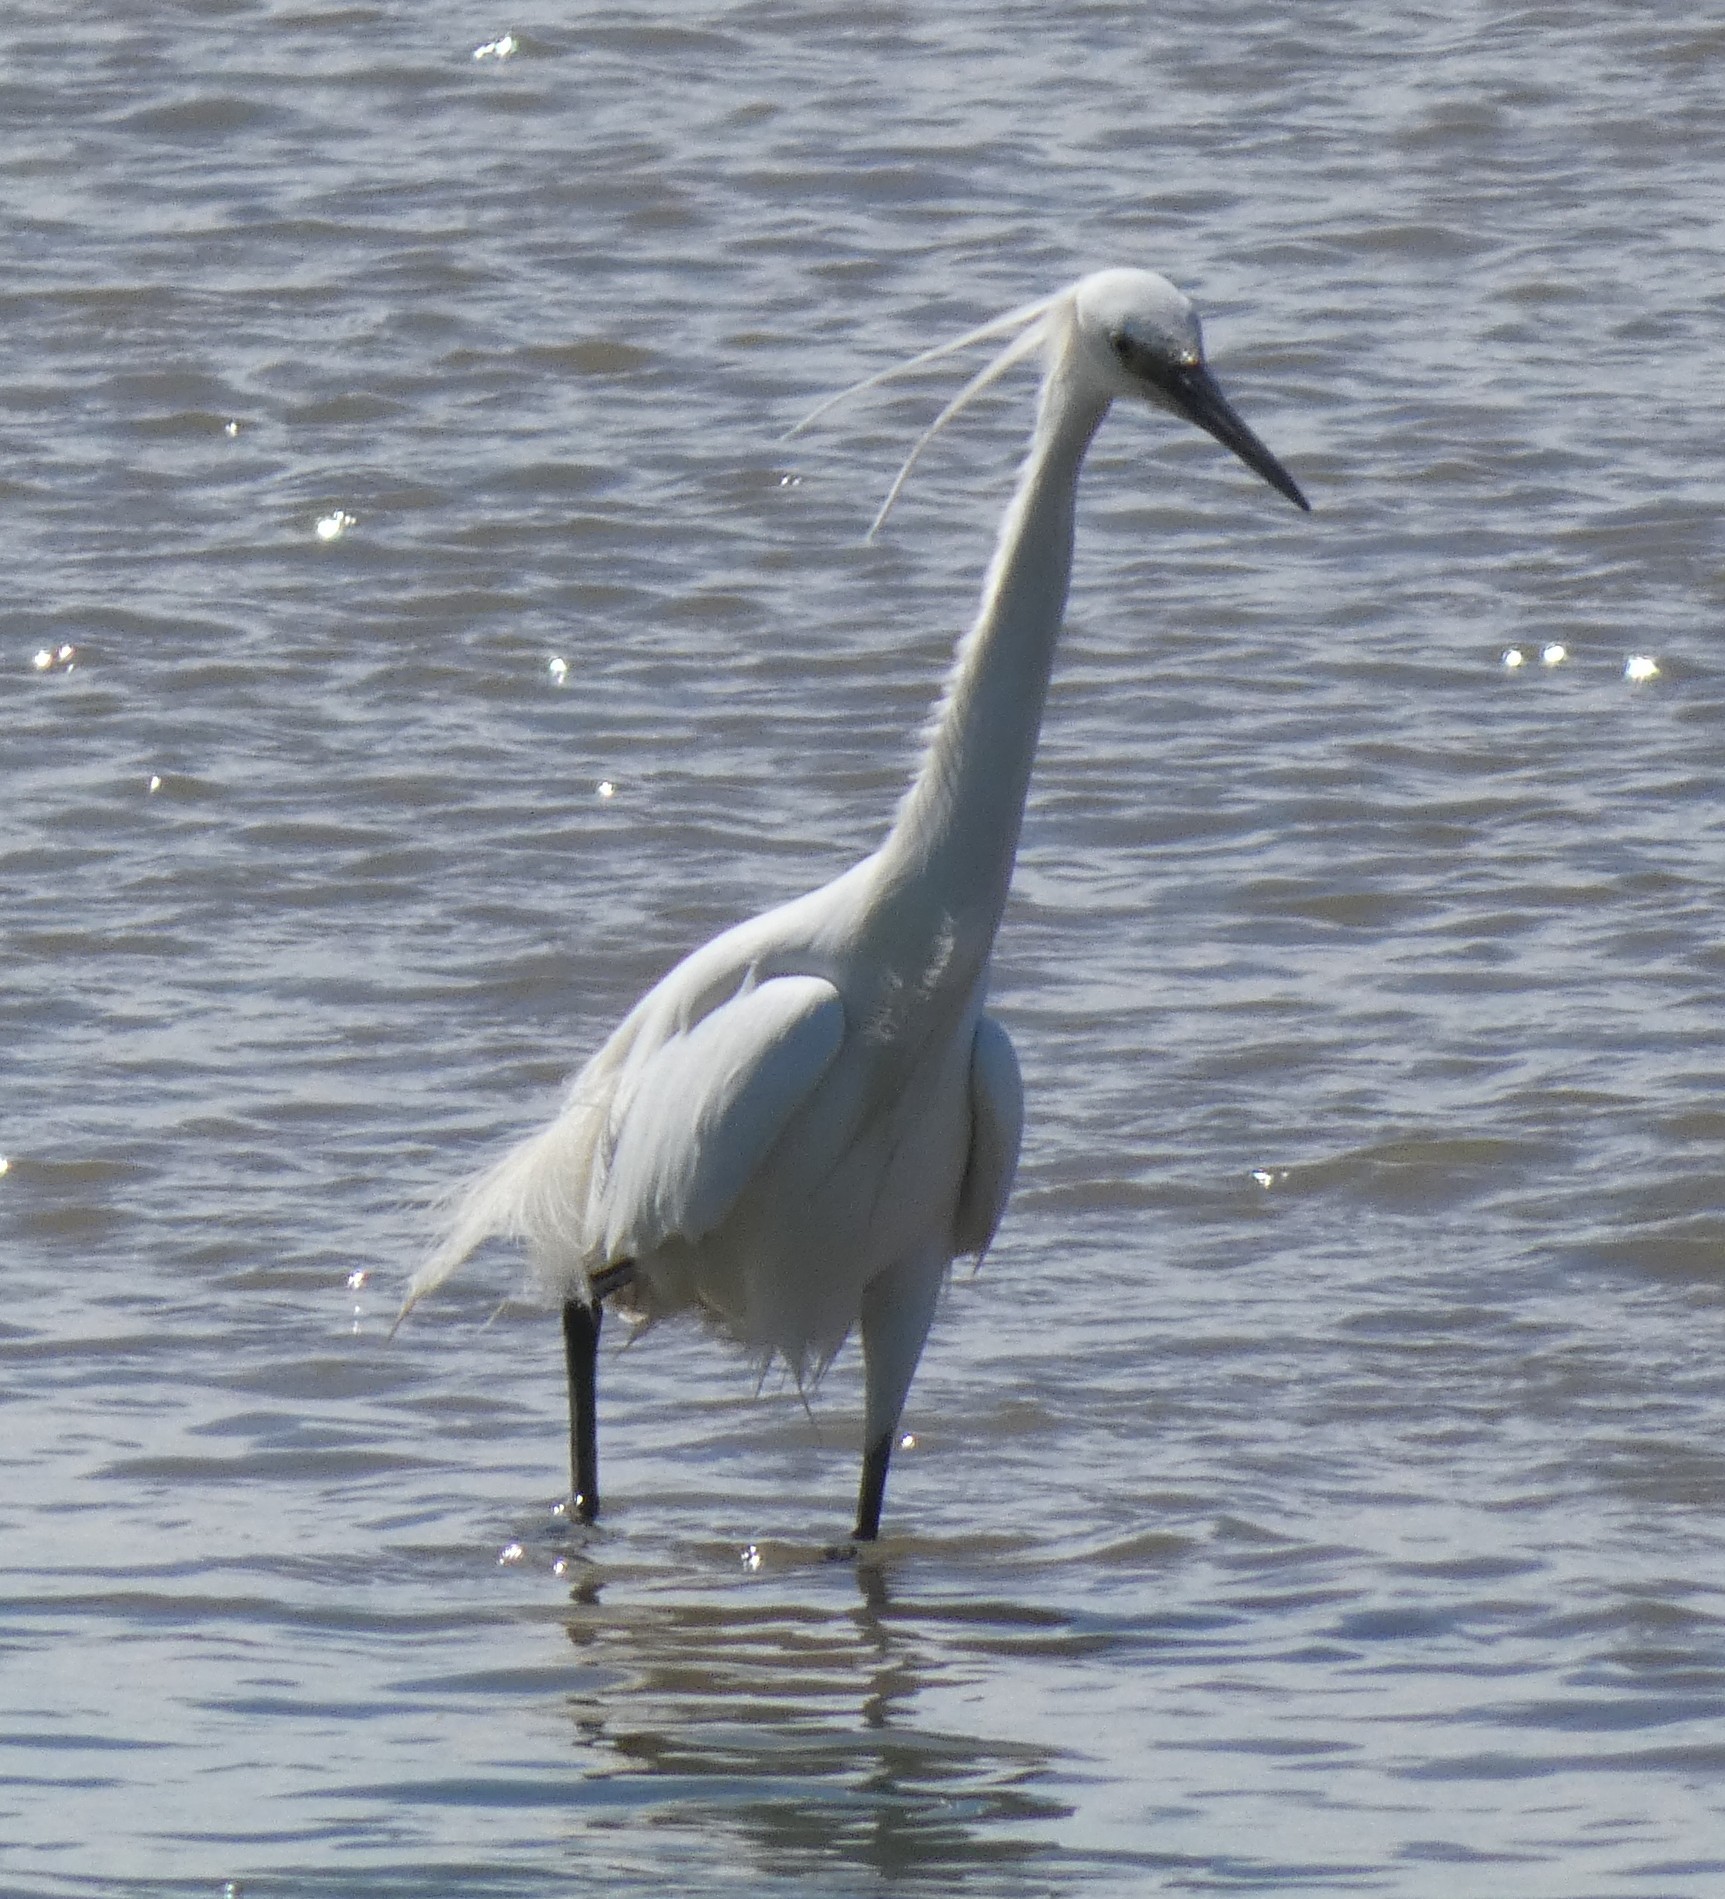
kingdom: Animalia
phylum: Chordata
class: Aves
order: Pelecaniformes
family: Ardeidae
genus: Egretta
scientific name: Egretta garzetta
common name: Little egret
